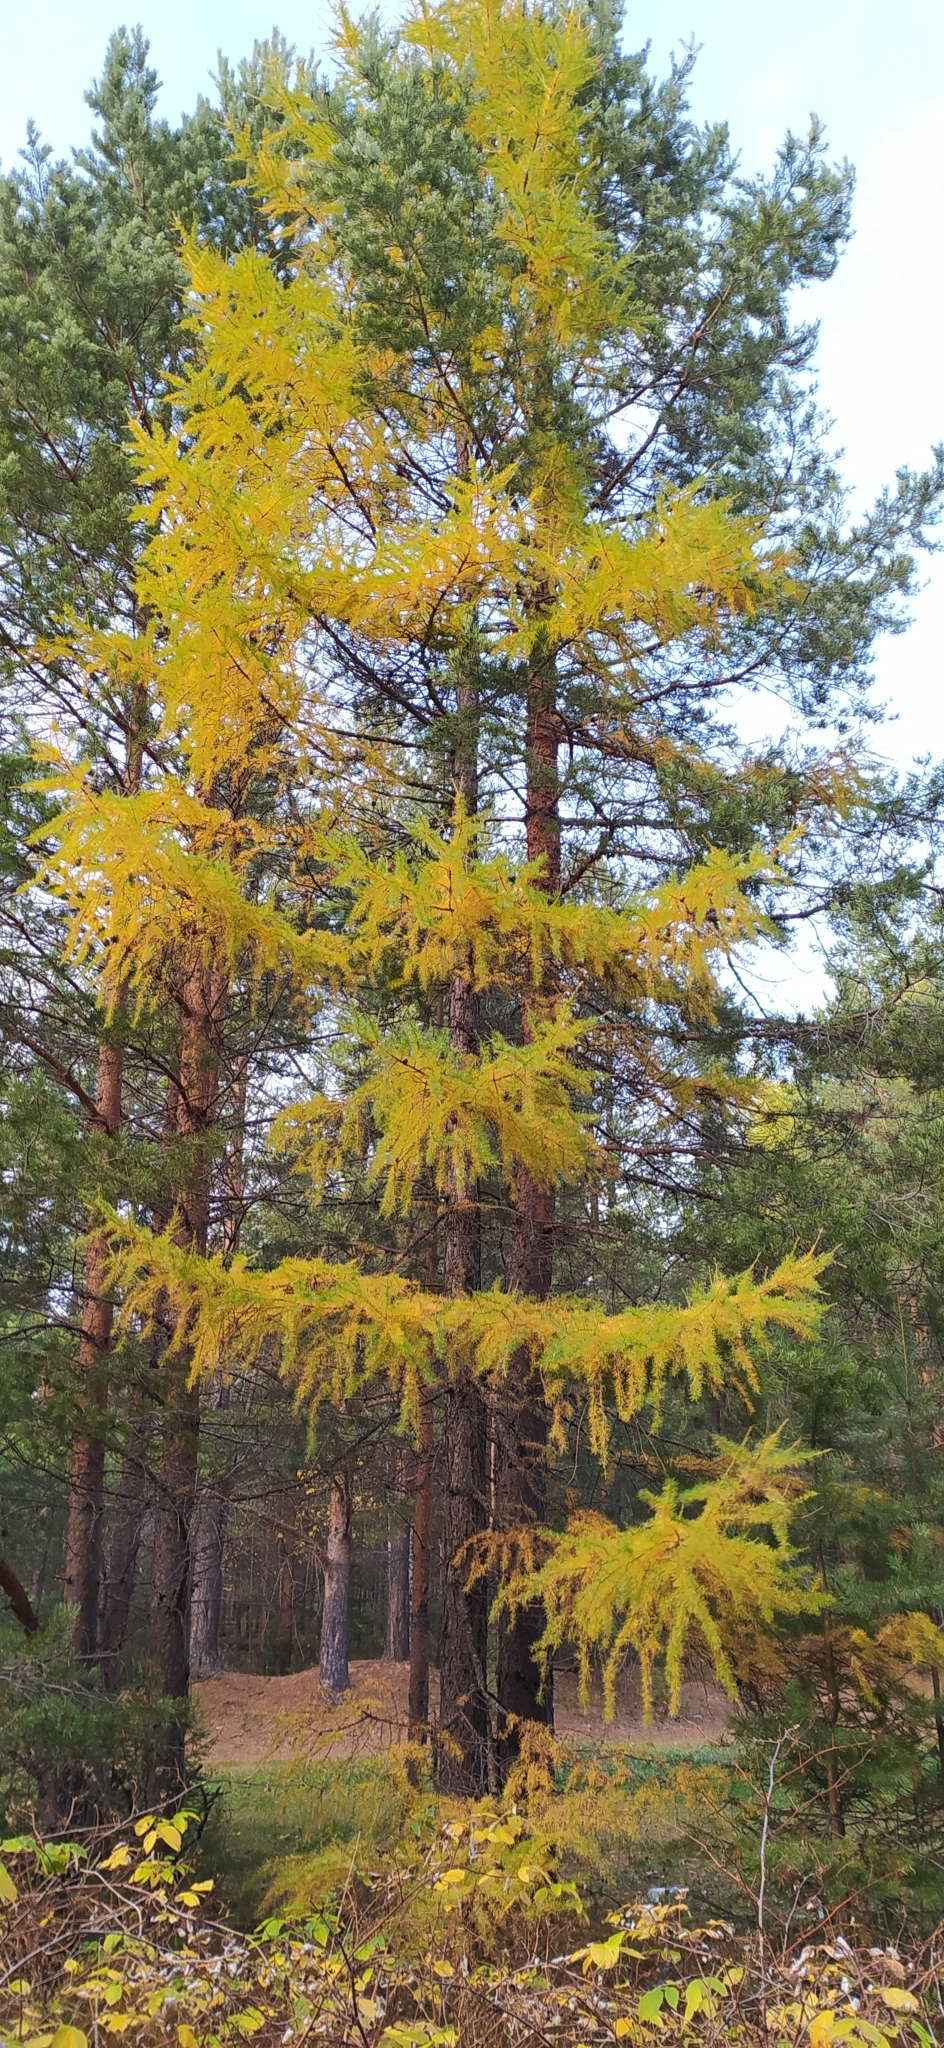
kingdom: Plantae
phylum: Tracheophyta
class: Pinopsida
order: Pinales
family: Pinaceae
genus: Larix
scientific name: Larix sibirica
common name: Siberian larch
